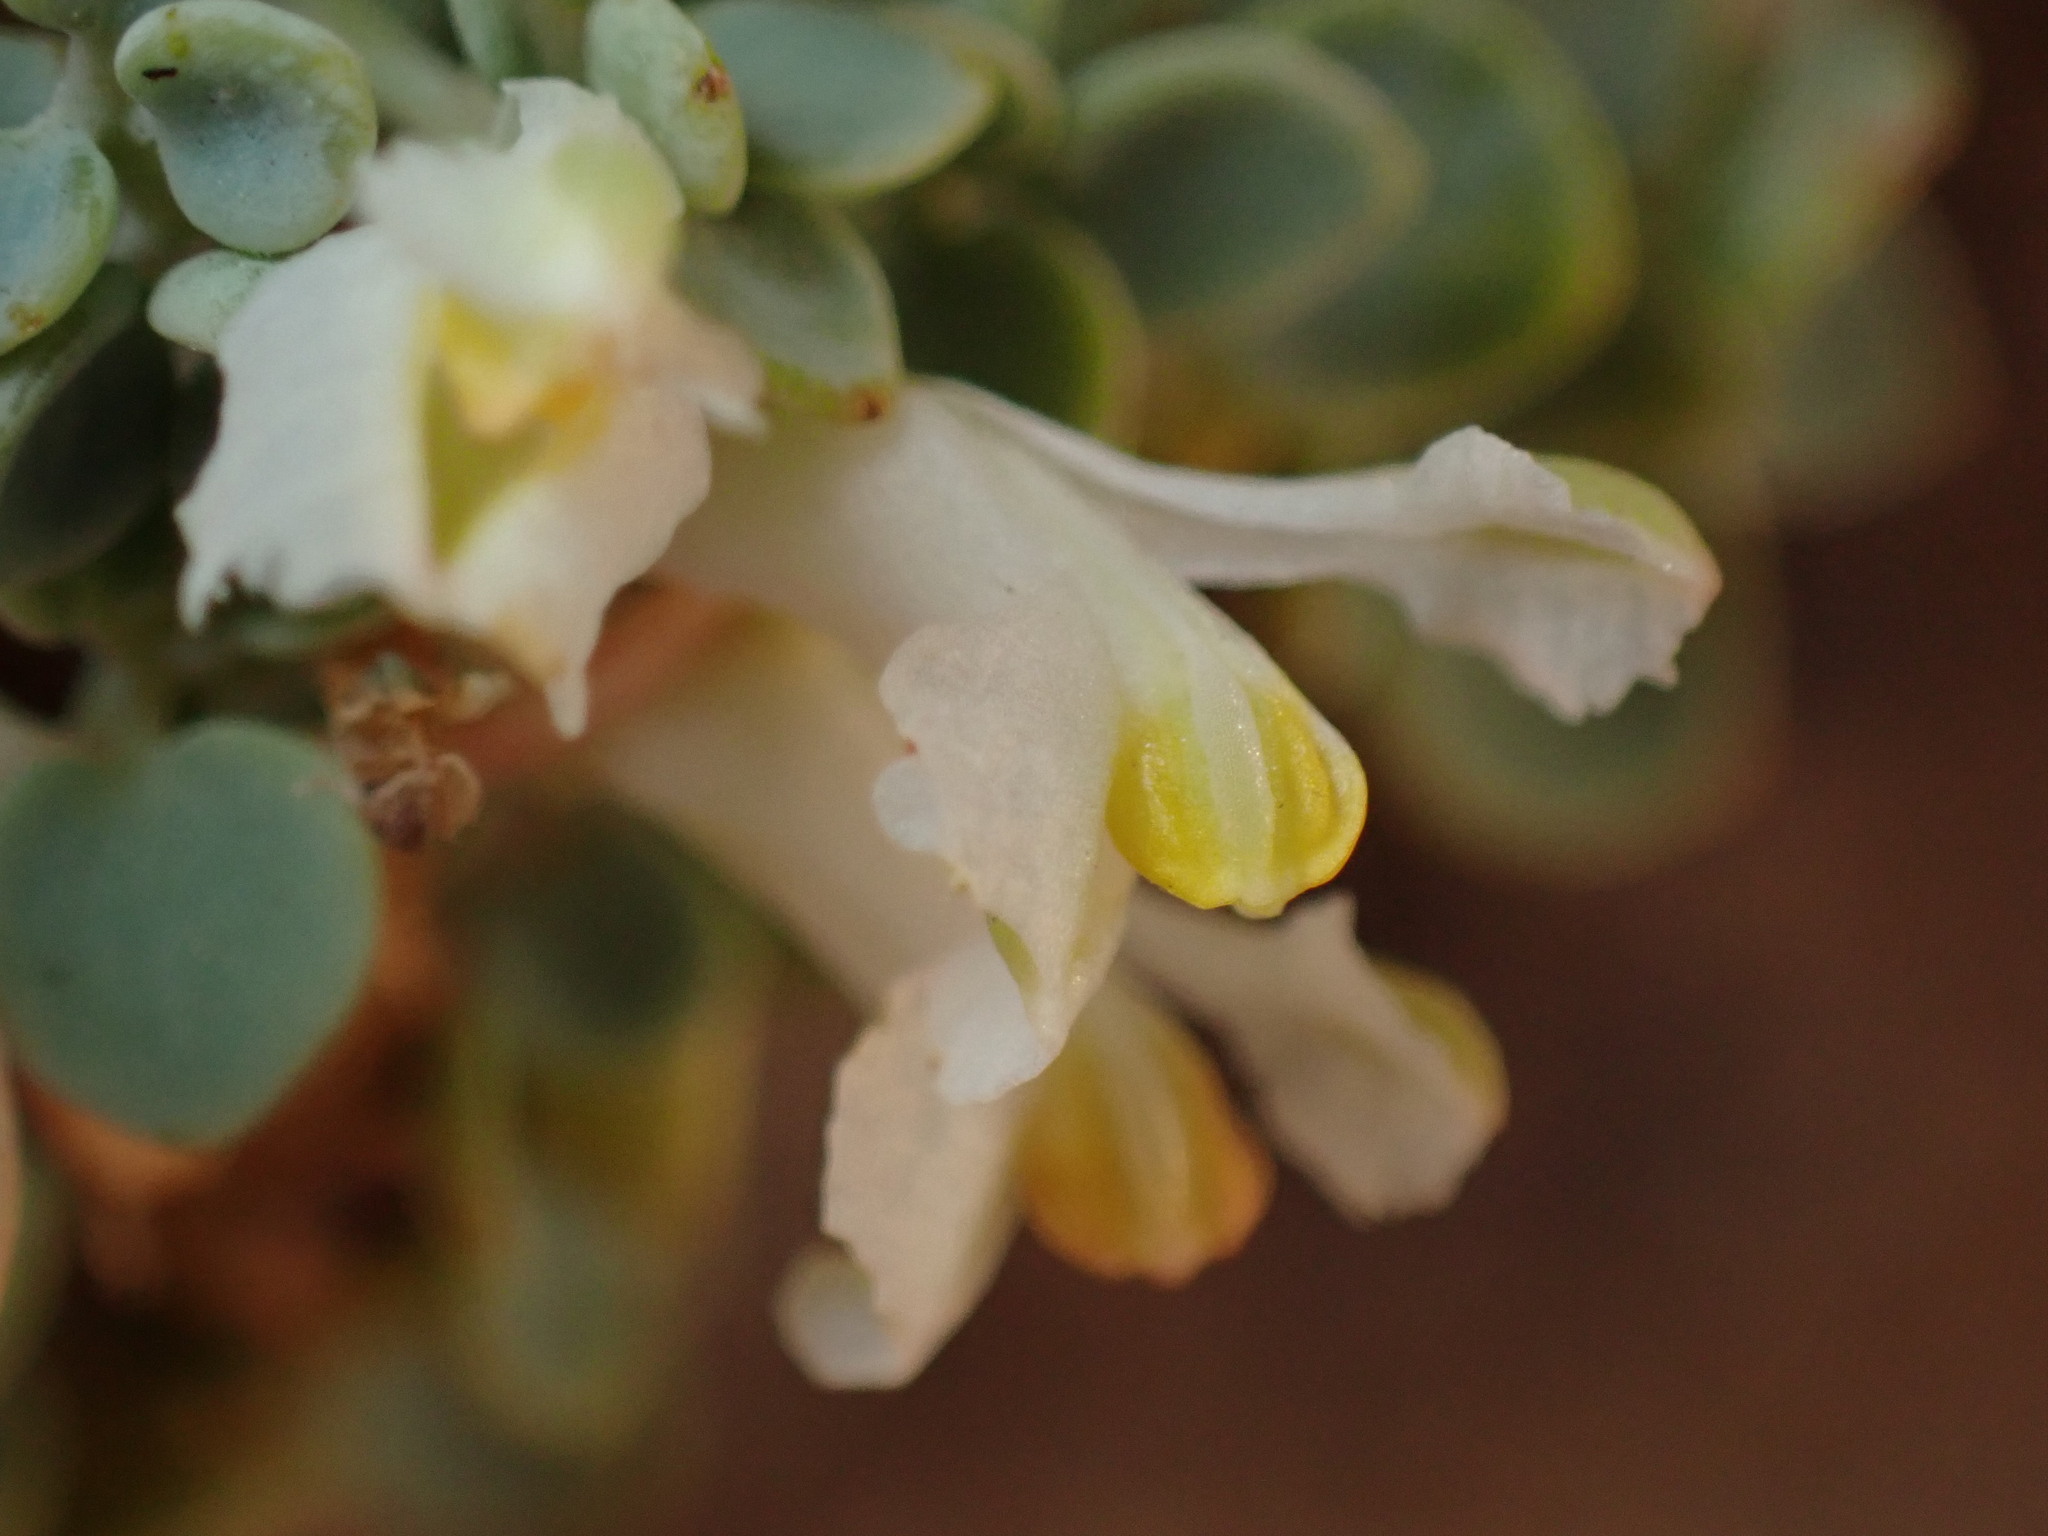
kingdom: Plantae
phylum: Tracheophyta
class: Magnoliopsida
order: Ranunculales
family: Papaveraceae
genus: Sarcocapnos
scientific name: Sarcocapnos enneaphylla
